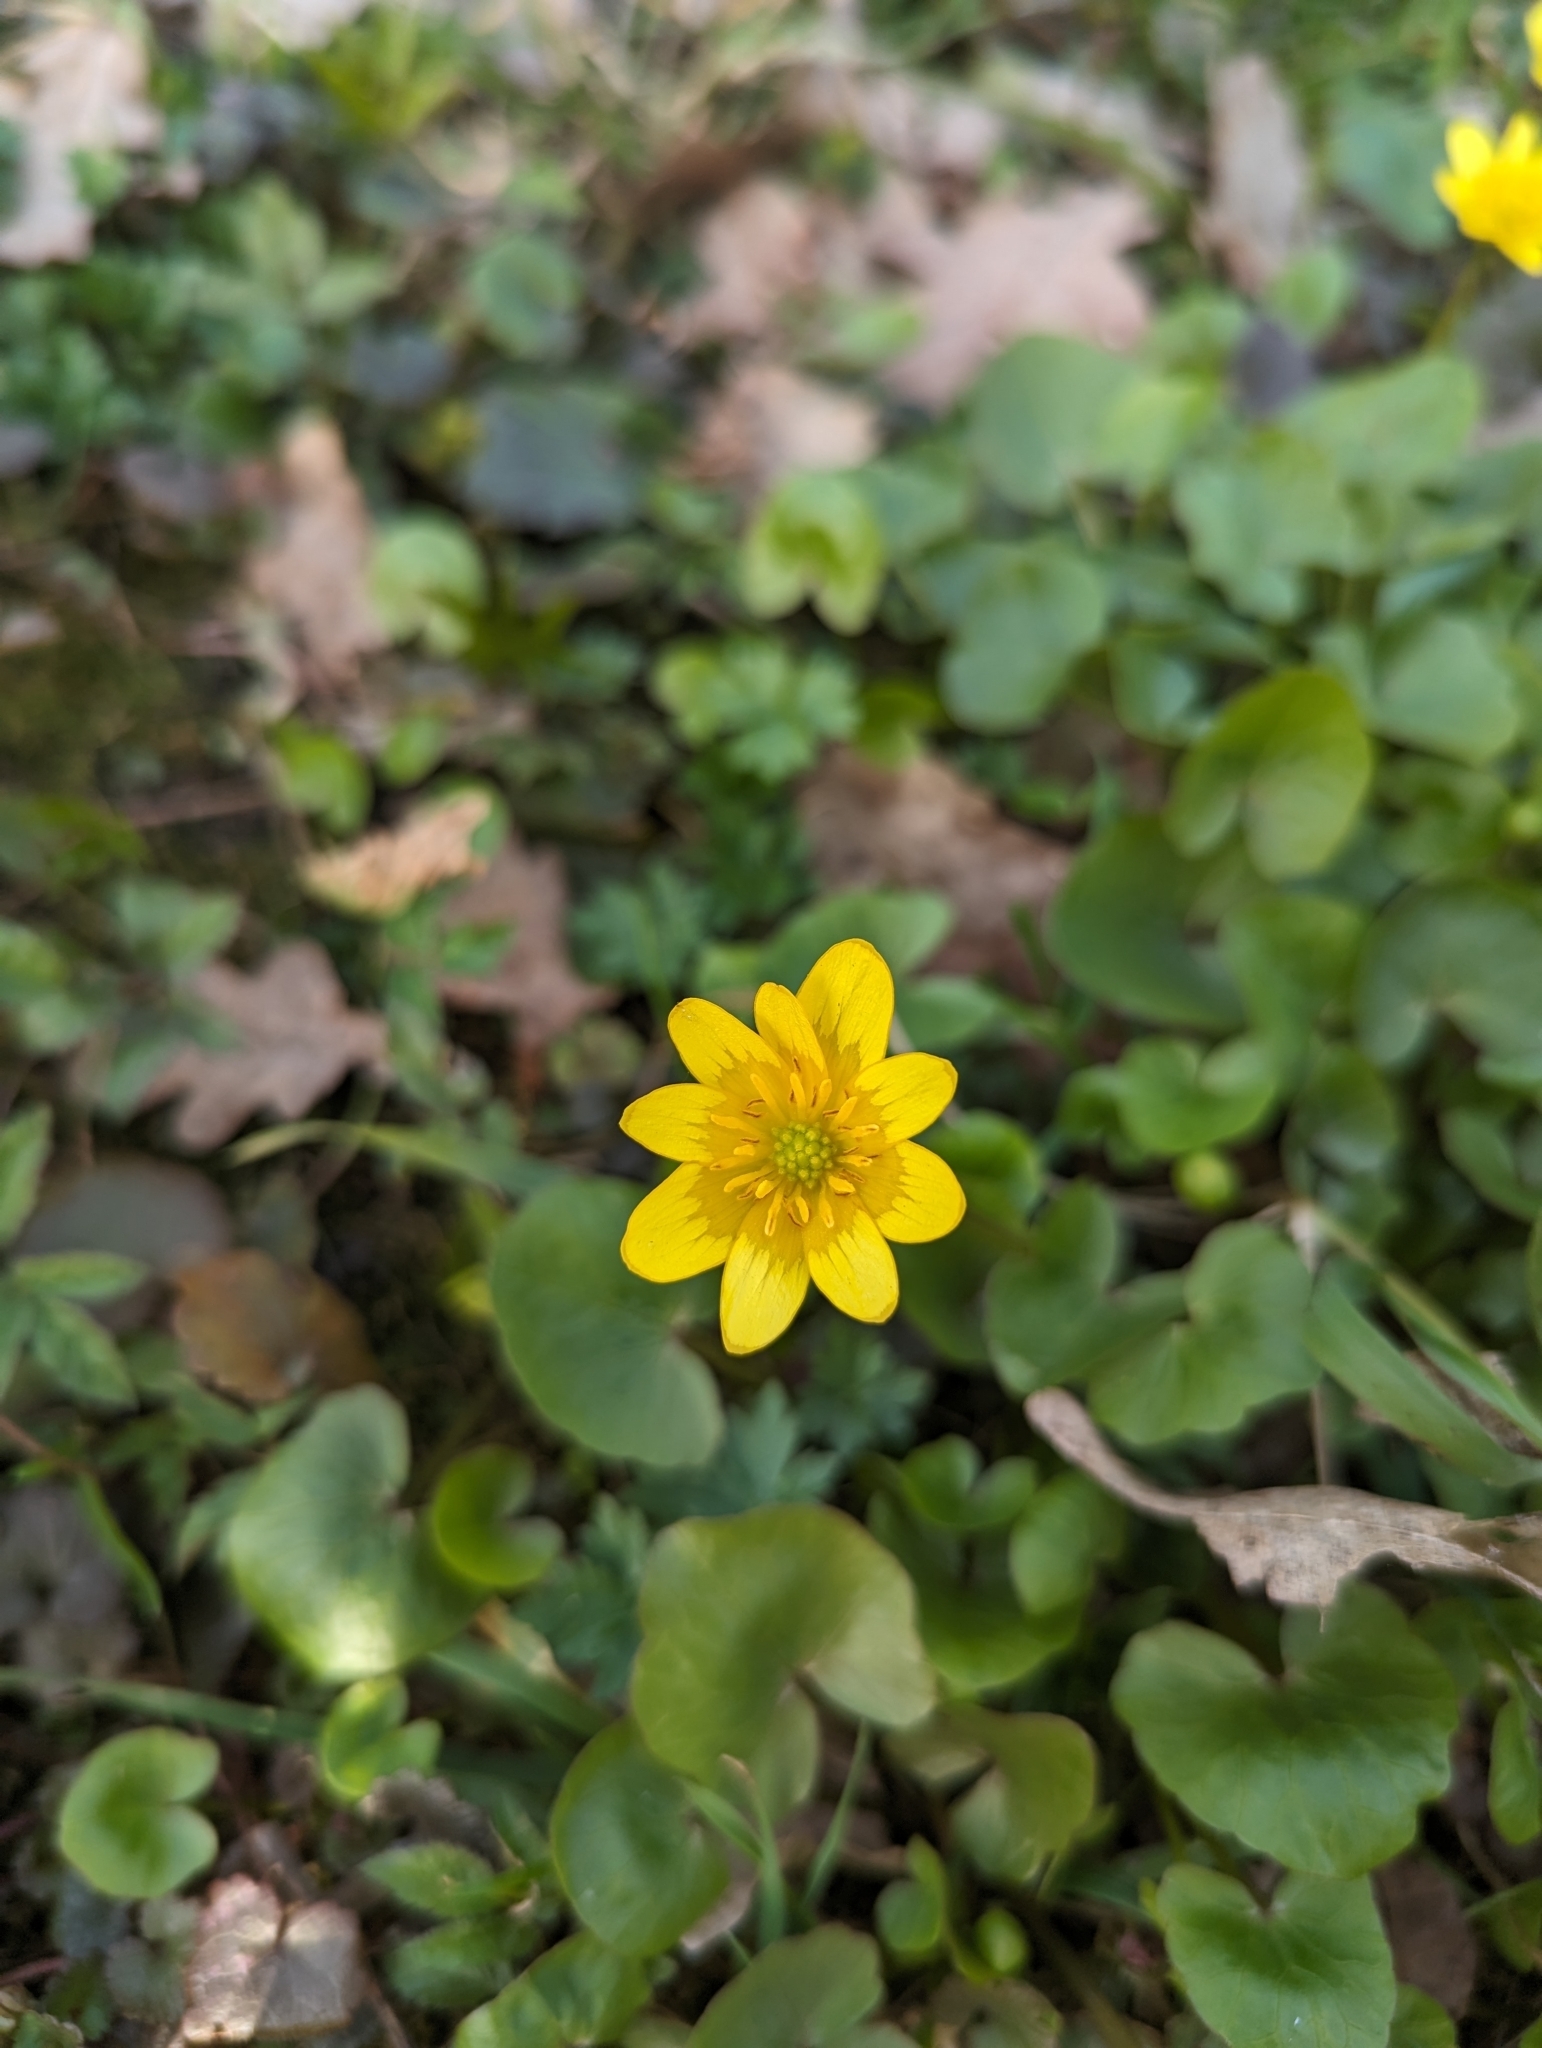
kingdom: Plantae
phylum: Tracheophyta
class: Magnoliopsida
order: Ranunculales
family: Ranunculaceae
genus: Ficaria
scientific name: Ficaria verna
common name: Lesser celandine
